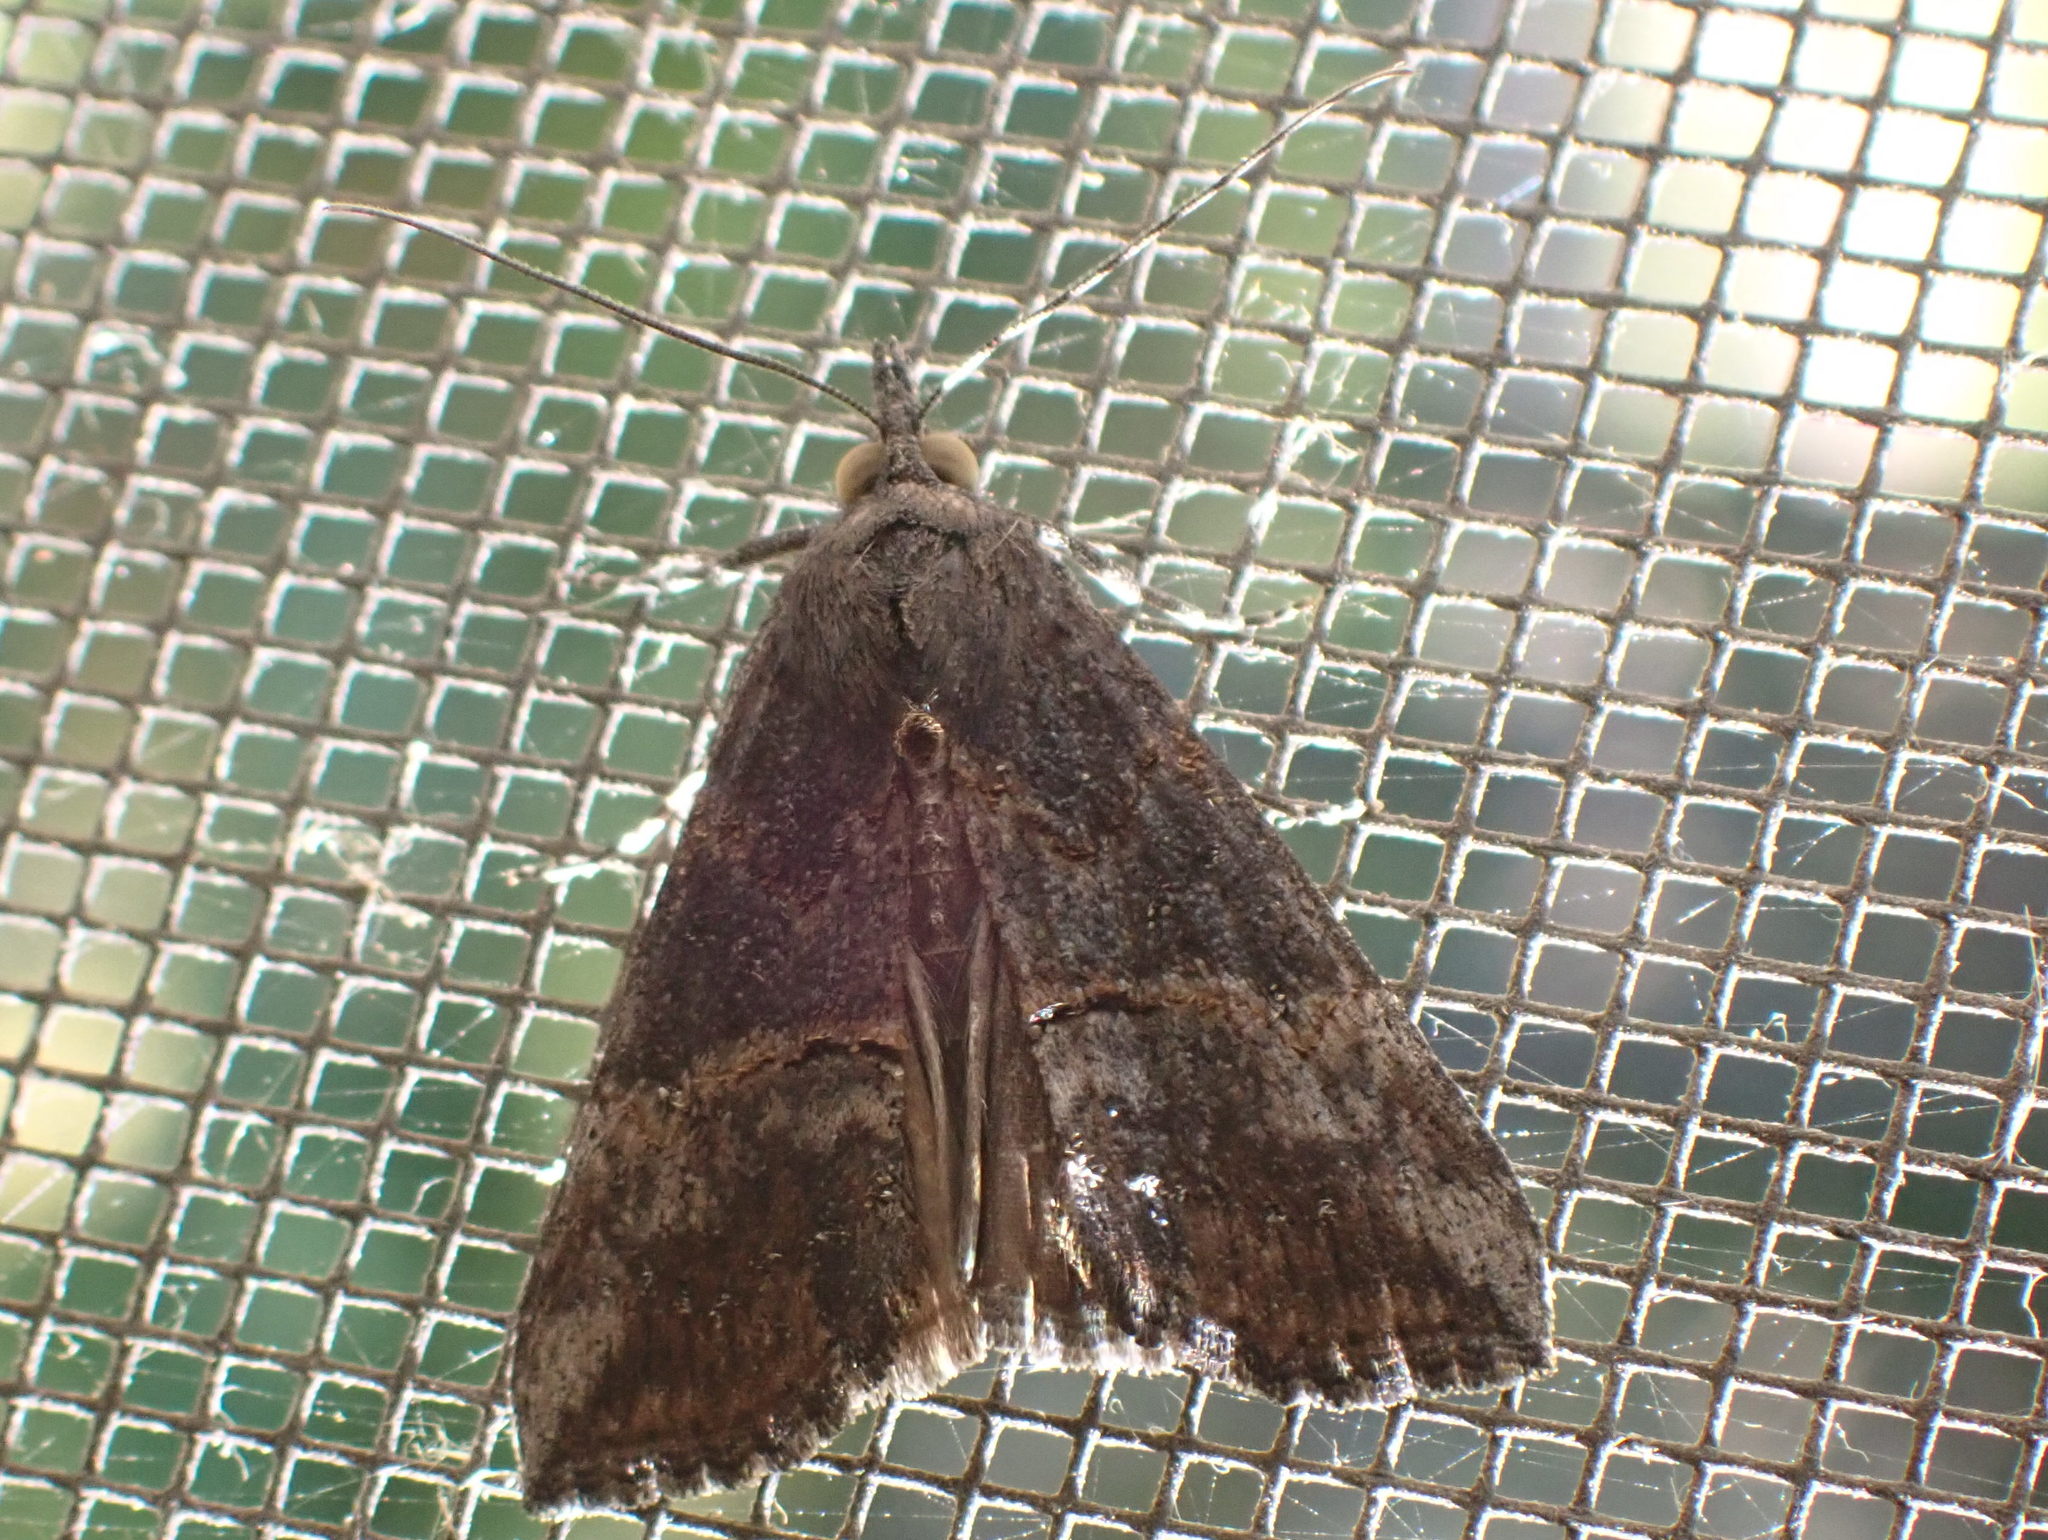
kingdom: Animalia
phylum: Arthropoda
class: Insecta
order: Lepidoptera
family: Erebidae
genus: Hypena
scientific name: Hypena scabra
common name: Green cloverworm
